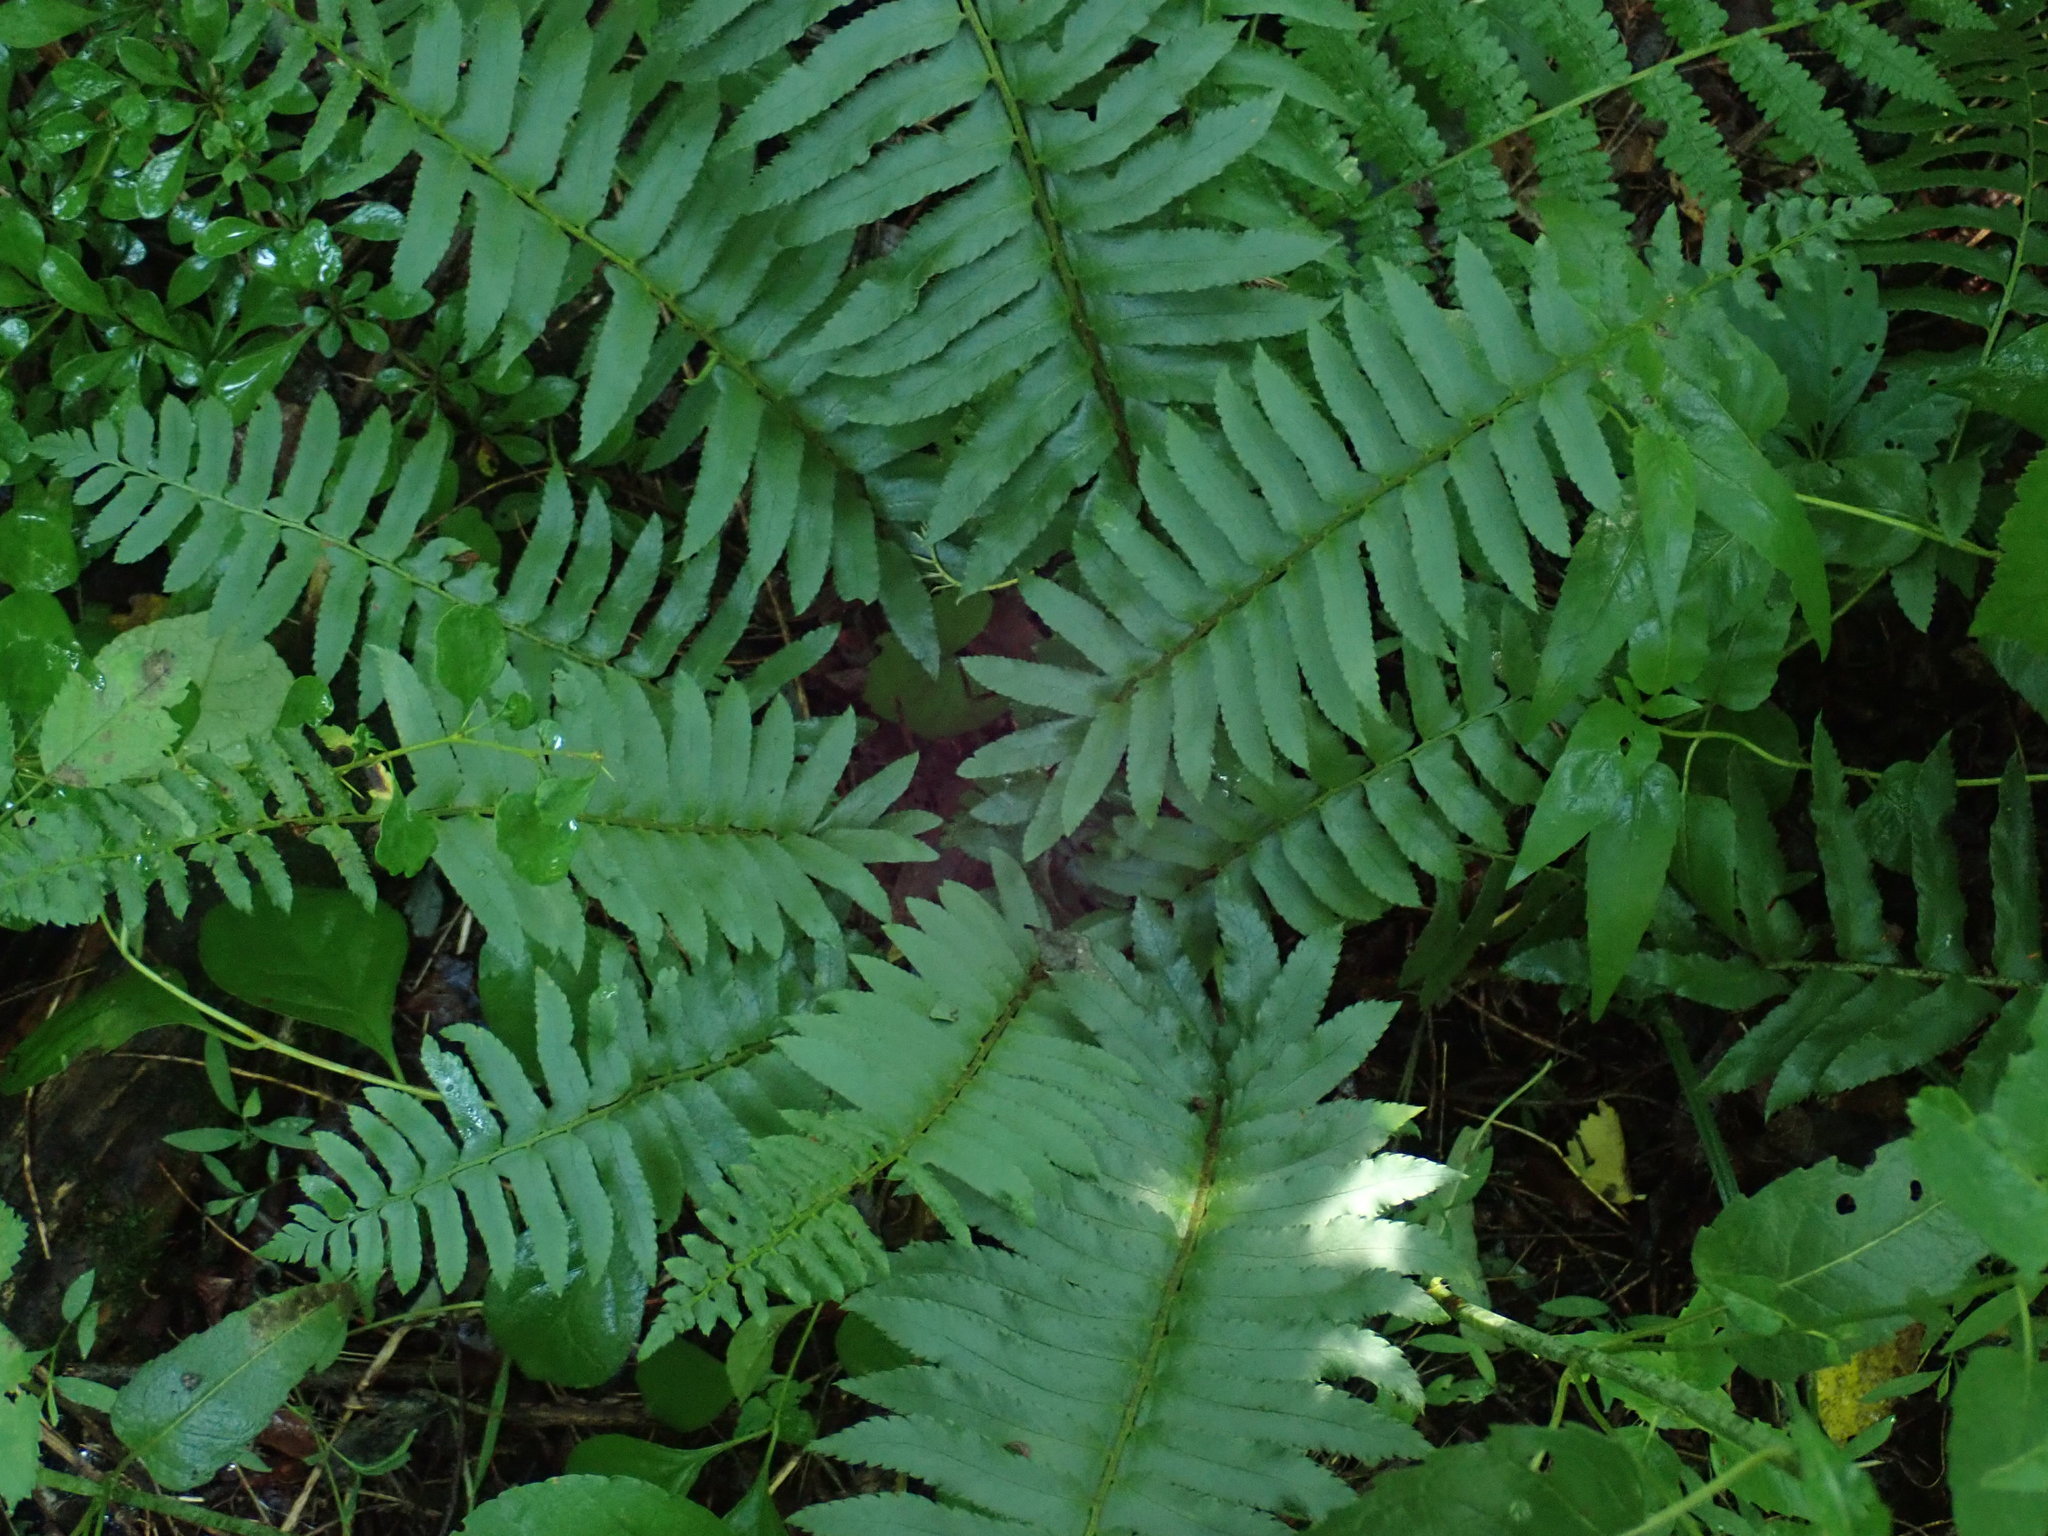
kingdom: Plantae
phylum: Tracheophyta
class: Polypodiopsida
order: Polypodiales
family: Dryopteridaceae
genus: Polystichum
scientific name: Polystichum acrostichoides
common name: Christmas fern
